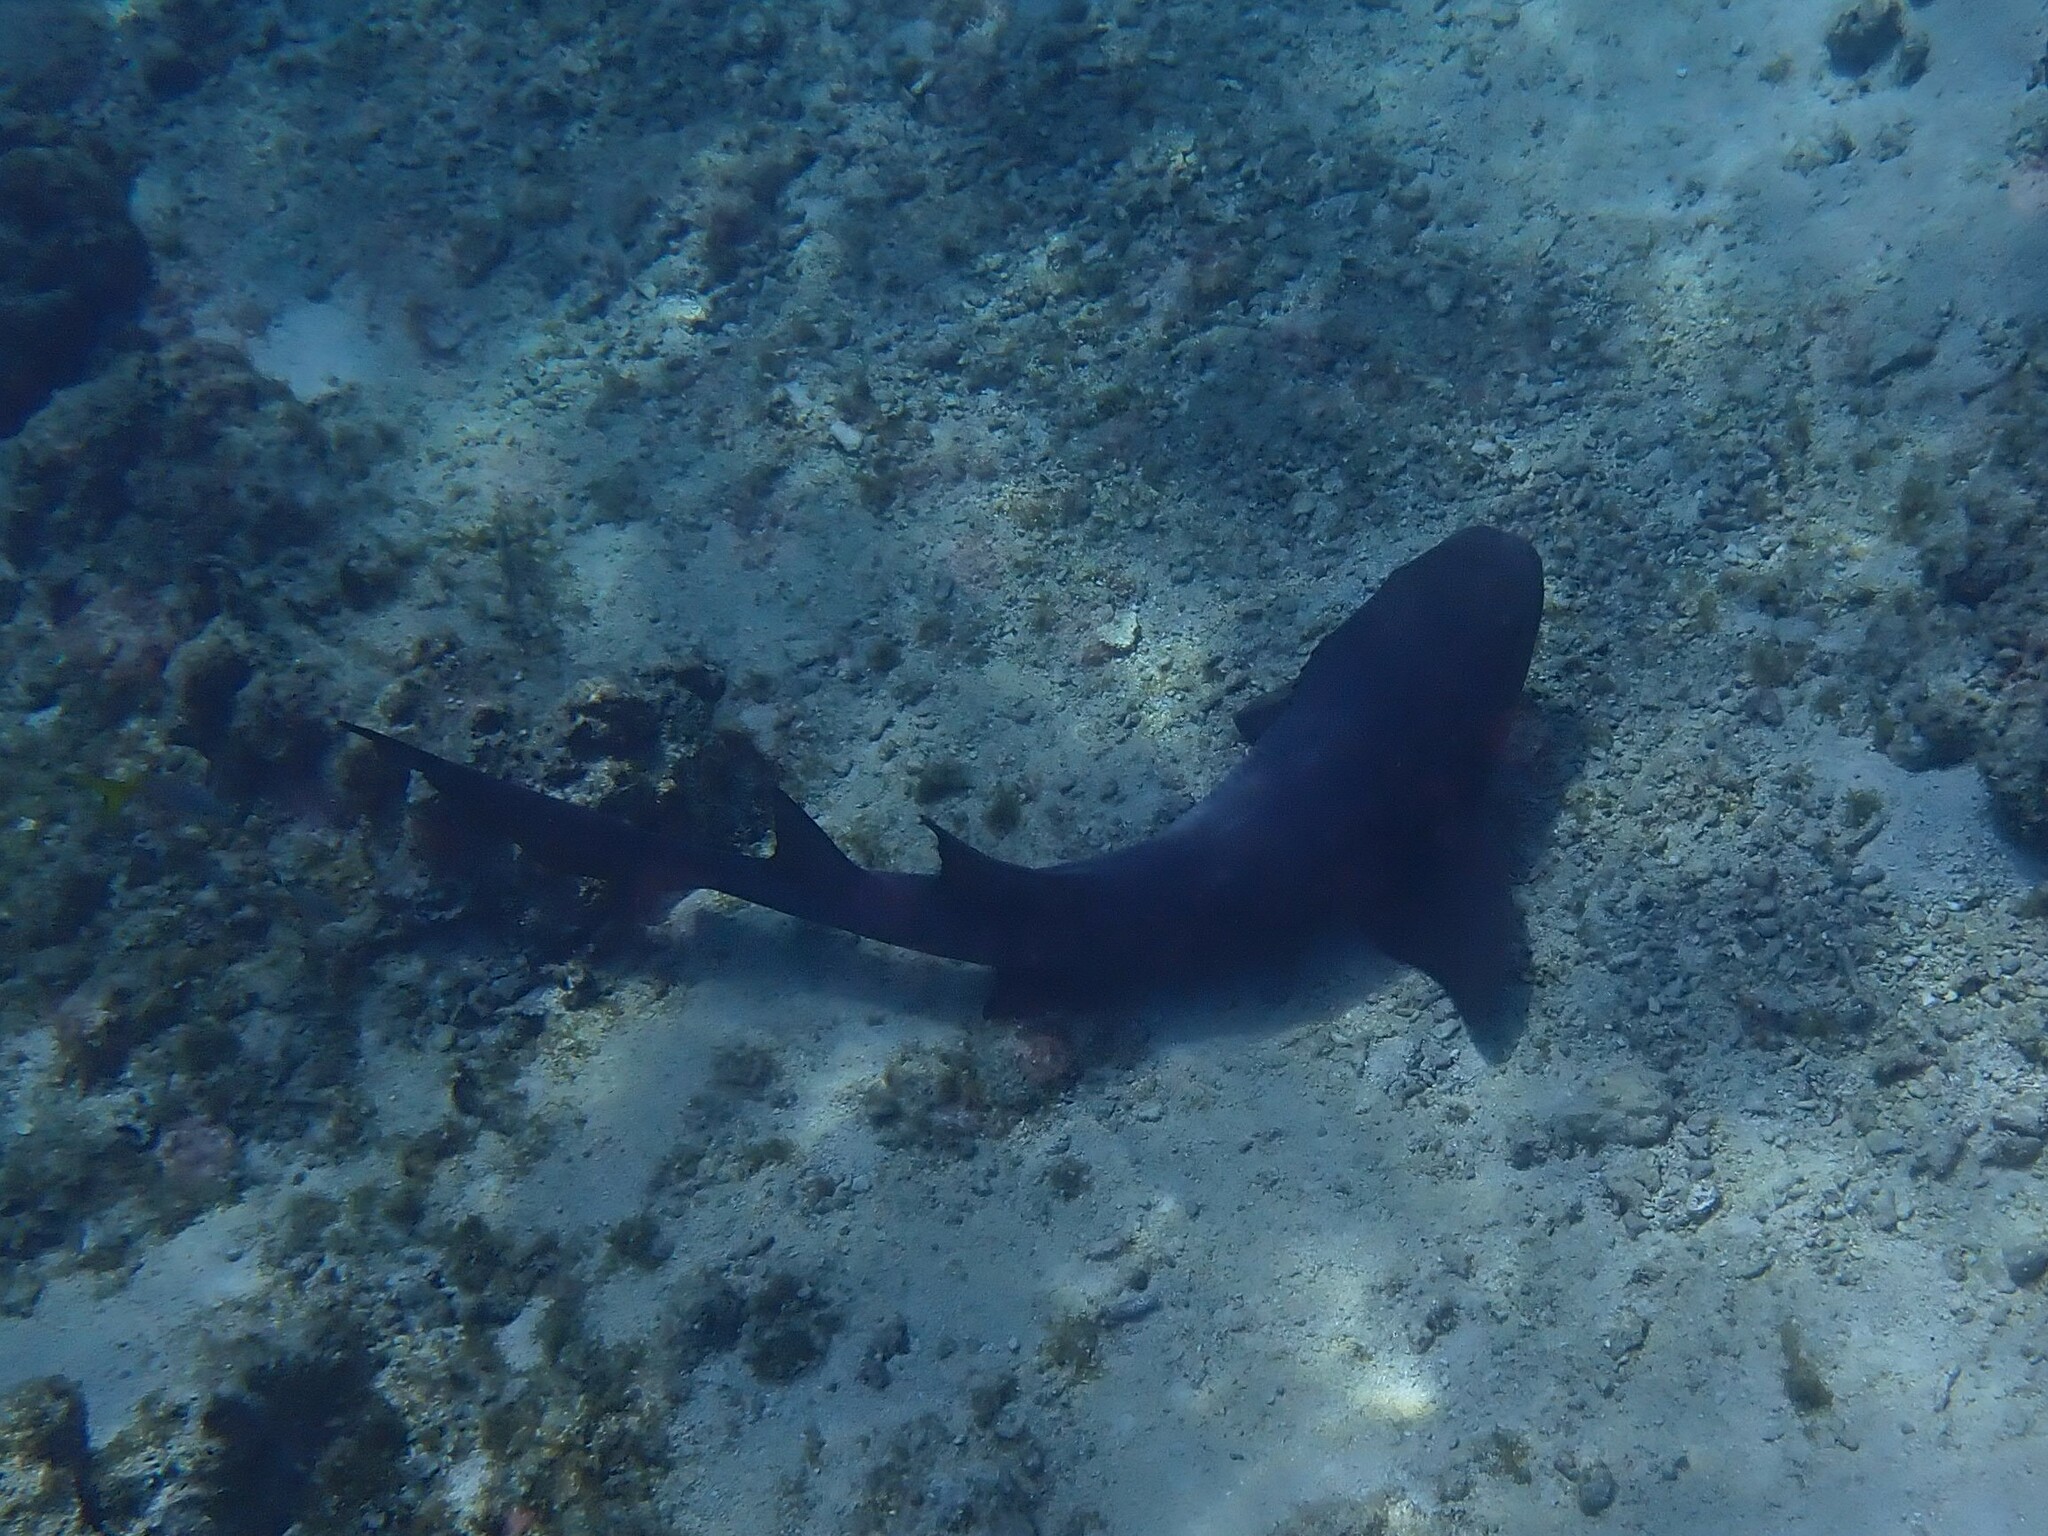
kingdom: Animalia
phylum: Chordata
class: Elasmobranchii
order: Orectolobiformes
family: Ginglymostomatidae
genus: Ginglymostoma
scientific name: Ginglymostoma cirratum
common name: Nurse shark
